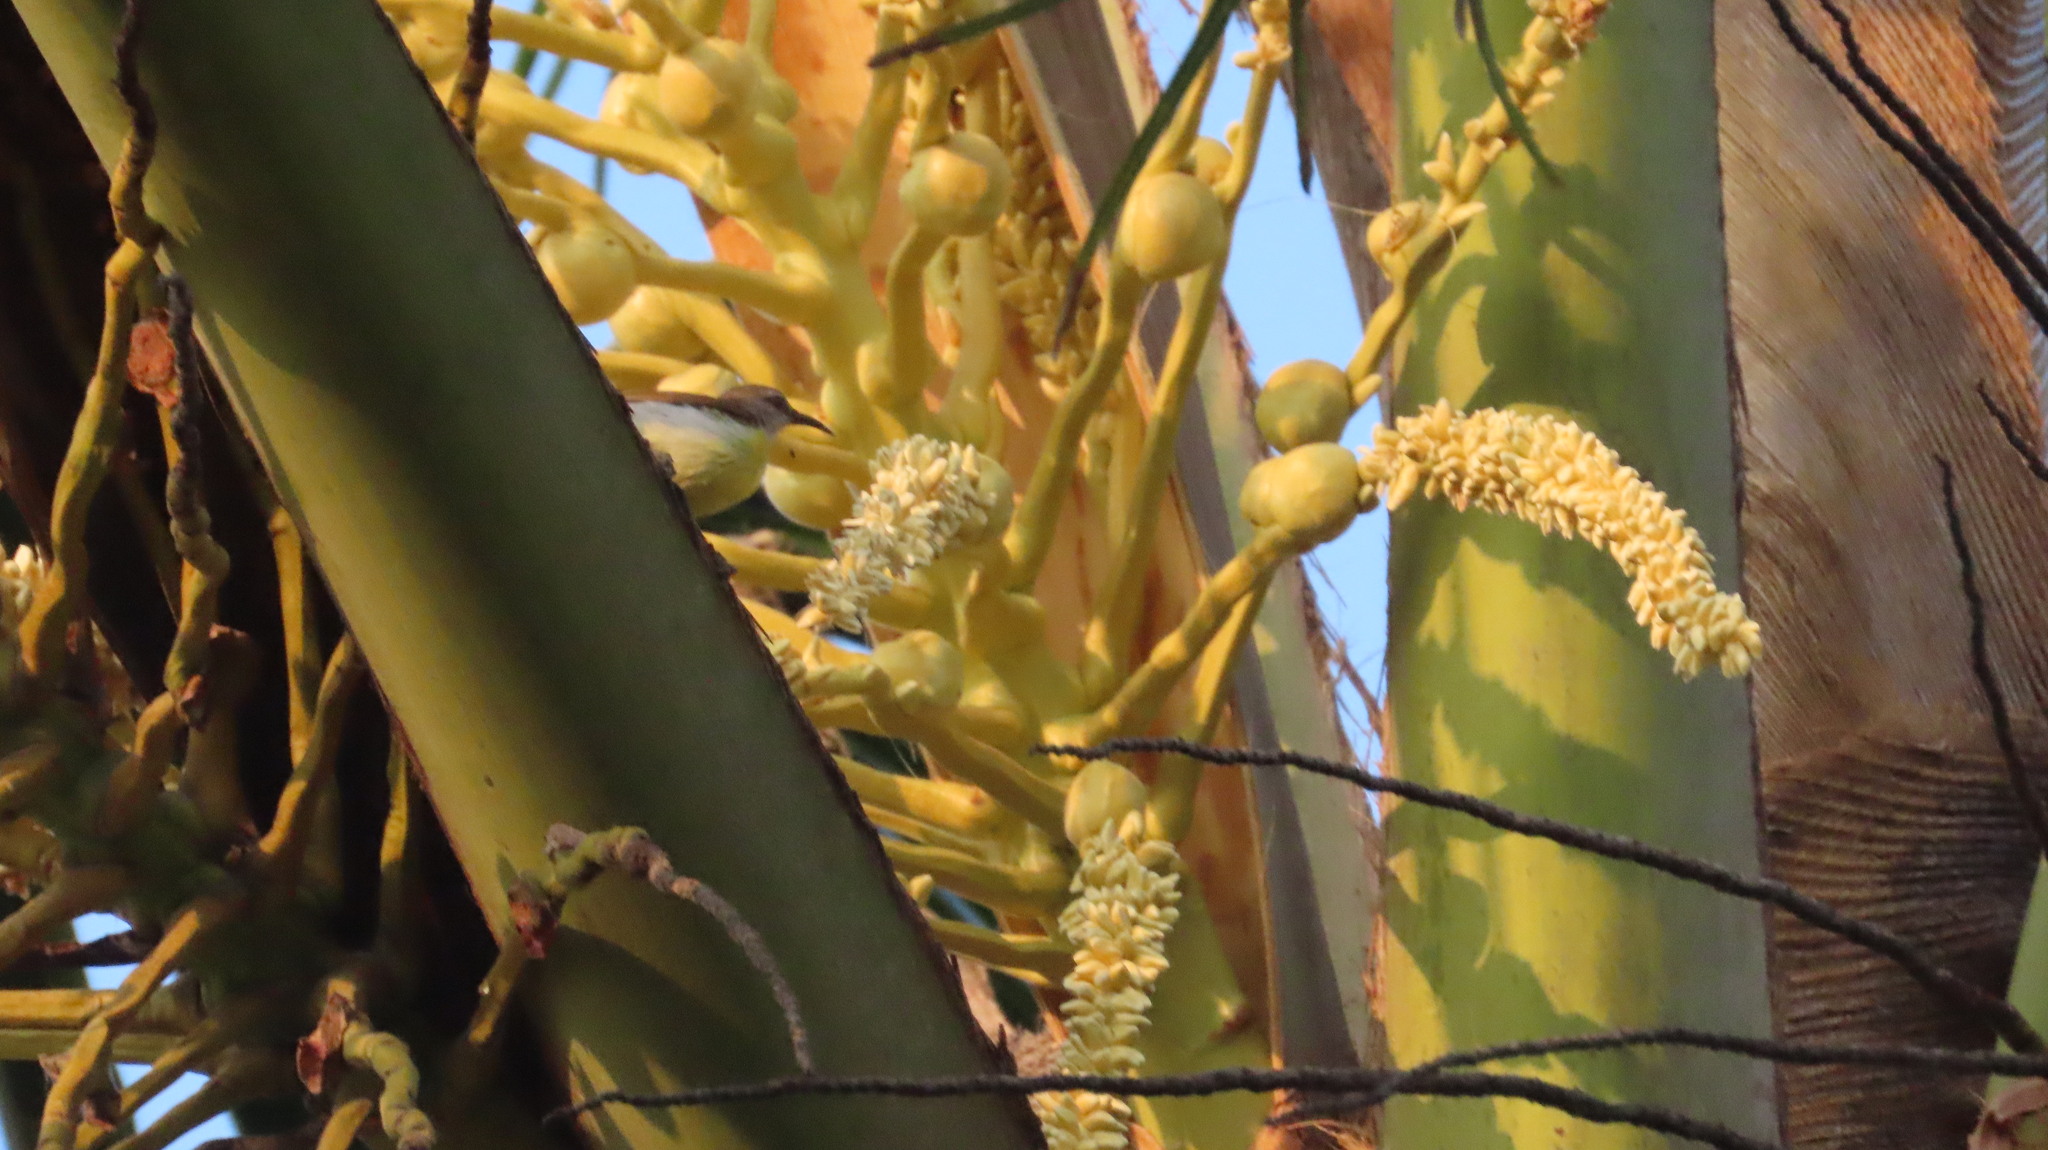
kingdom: Animalia
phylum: Chordata
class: Aves
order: Passeriformes
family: Nectariniidae
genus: Leptocoma
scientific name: Leptocoma zeylonica
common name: Purple-rumped sunbird
